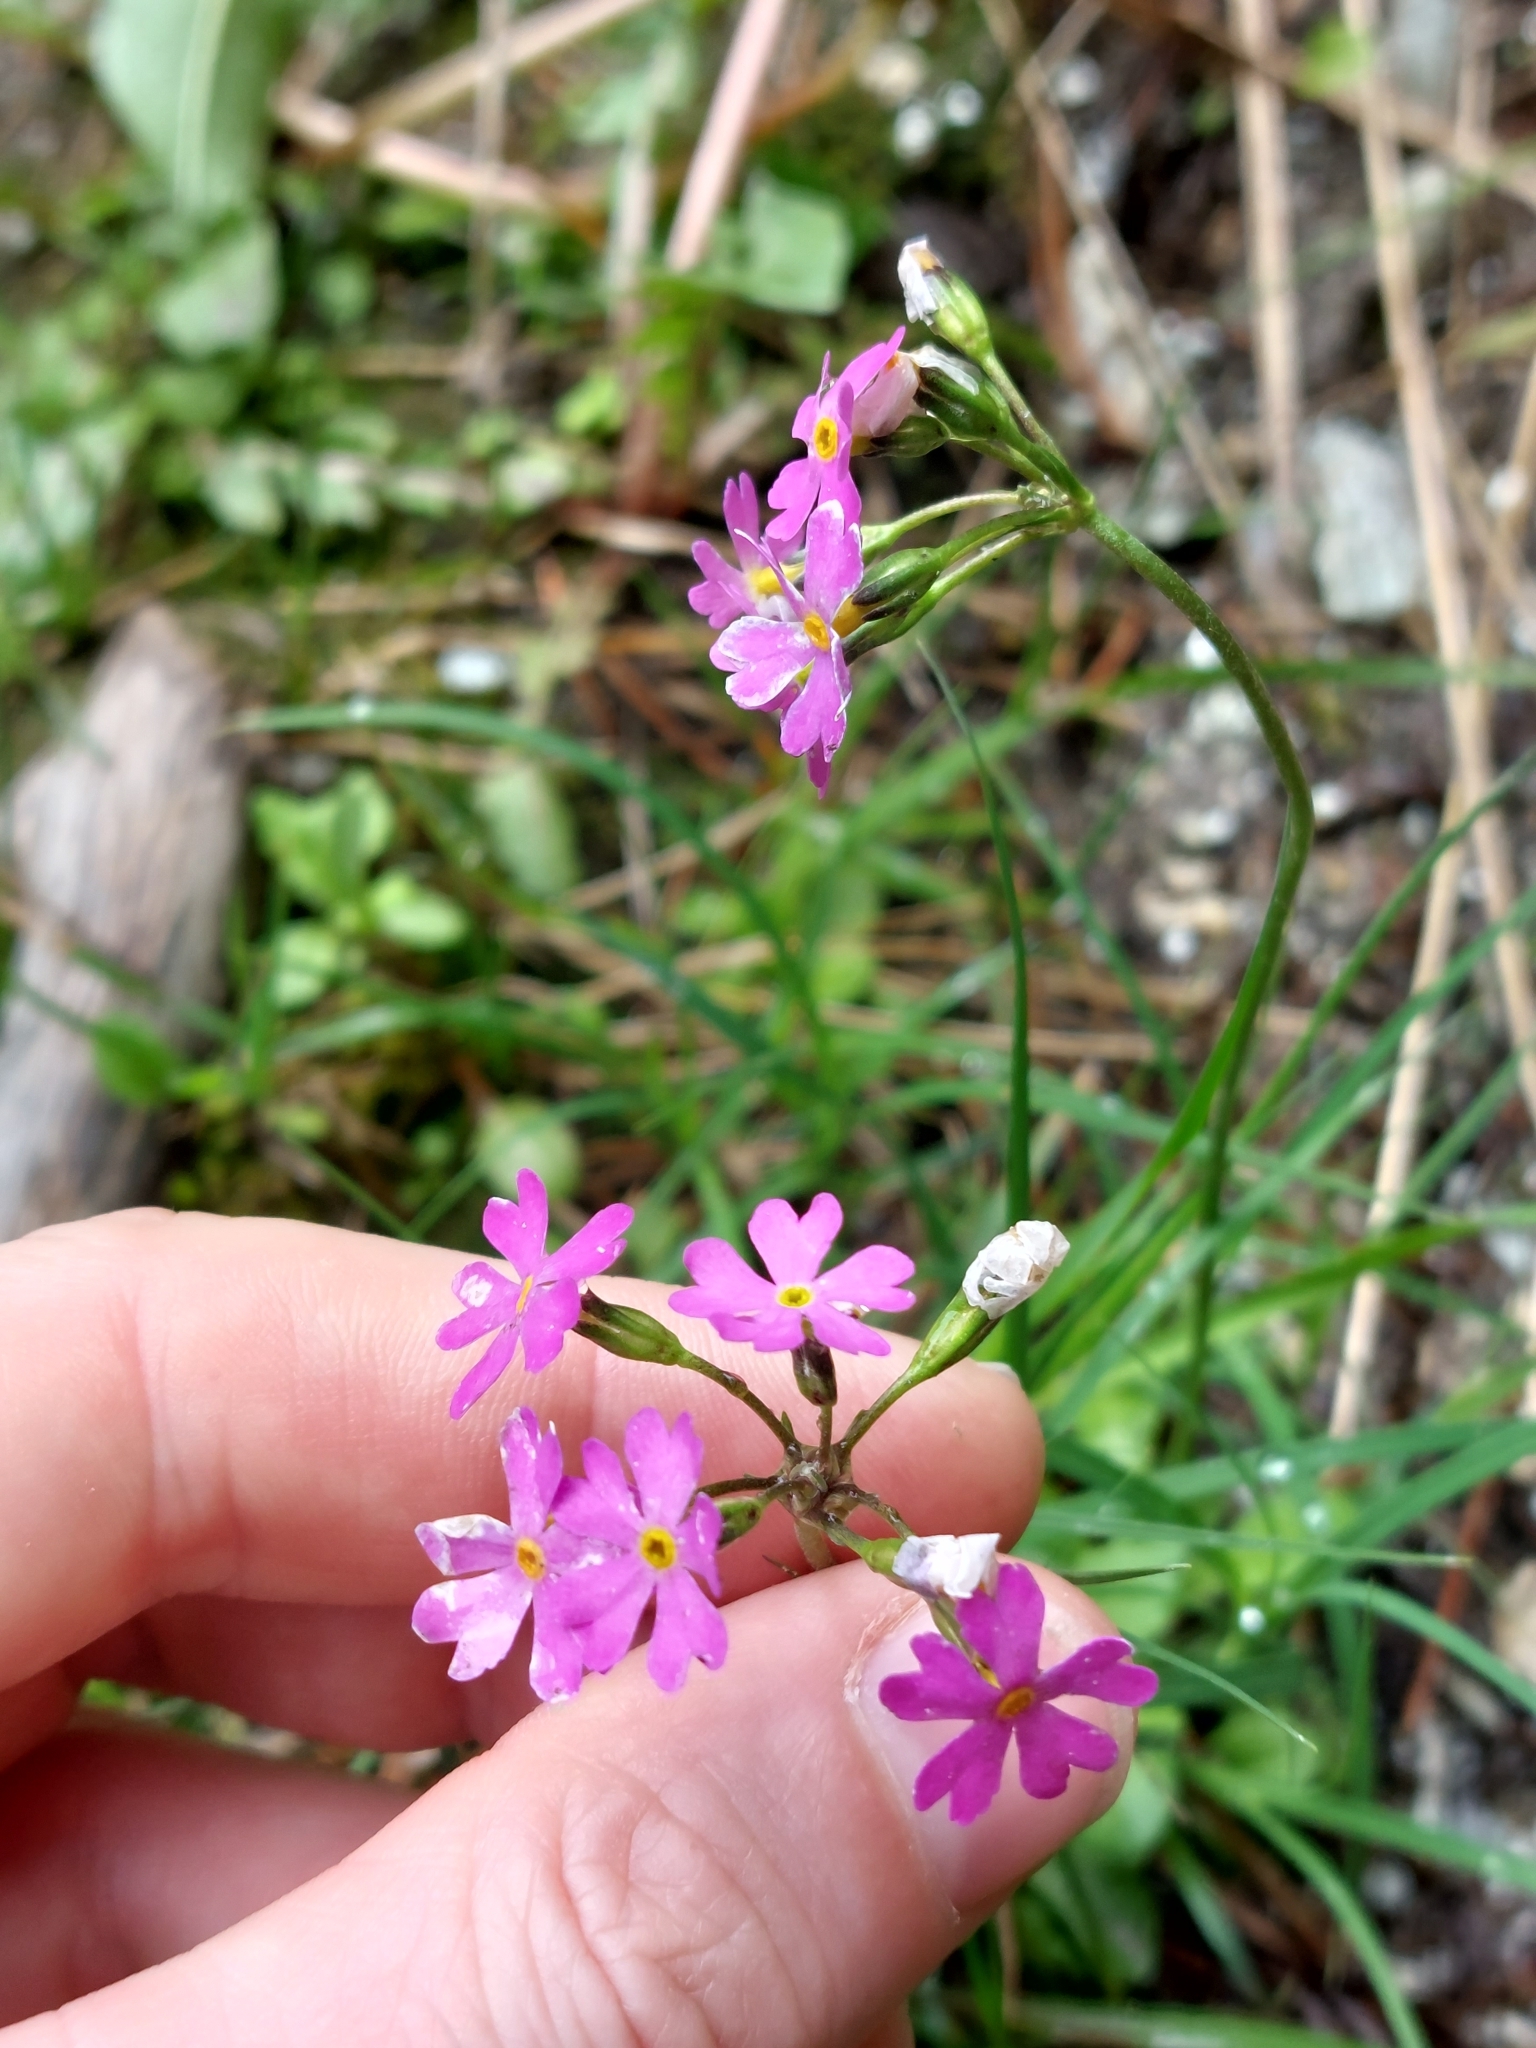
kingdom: Plantae
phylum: Tracheophyta
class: Magnoliopsida
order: Ericales
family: Primulaceae
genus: Primula
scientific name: Primula farinosa
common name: Bird's-eye primrose
